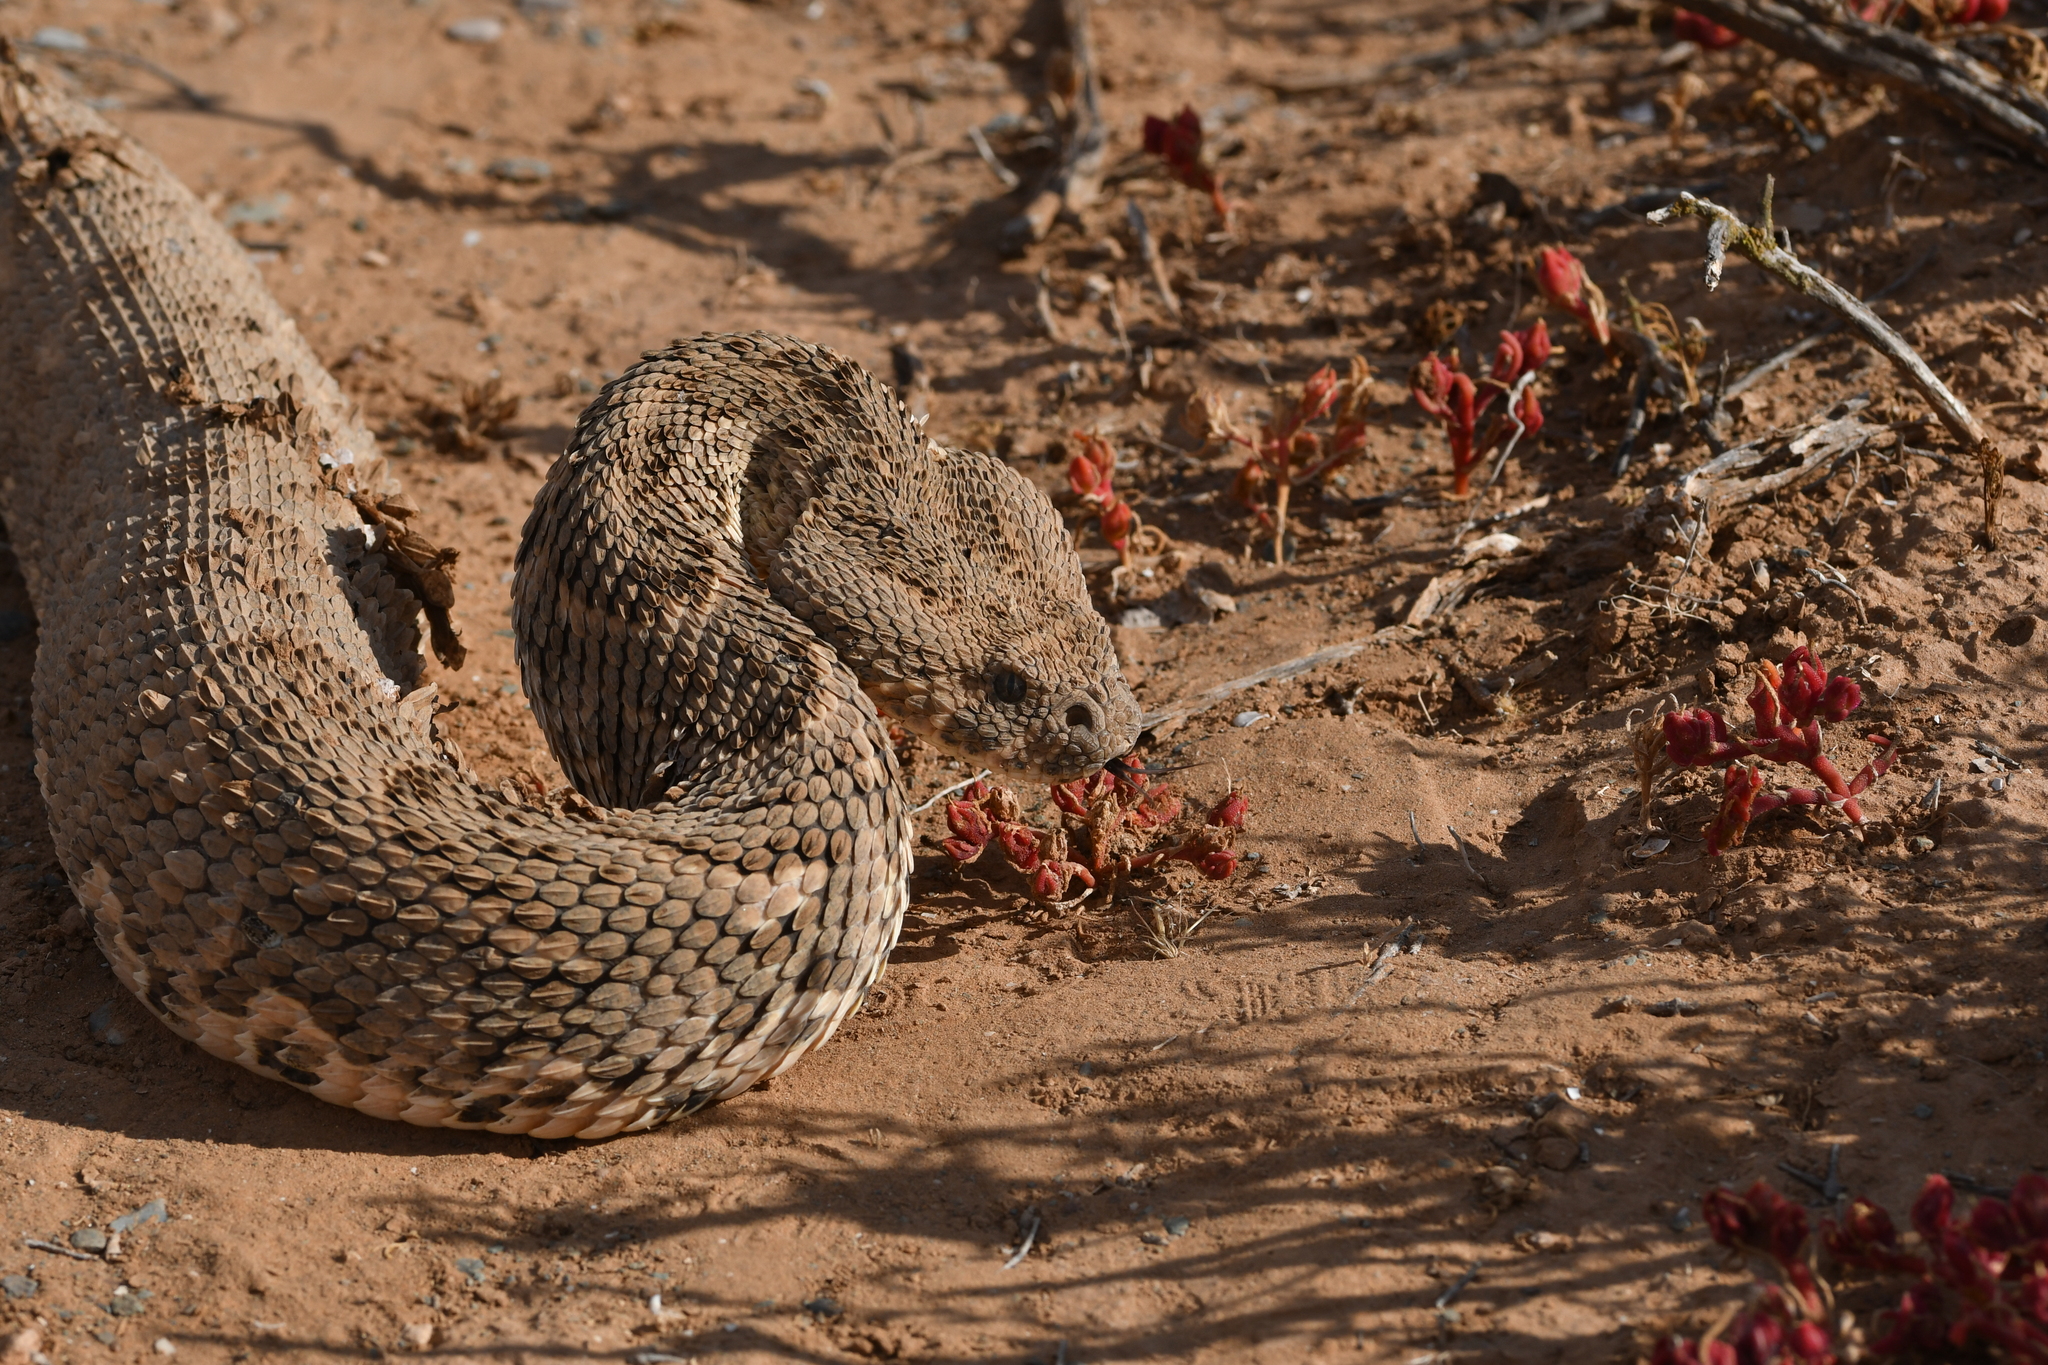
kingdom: Animalia
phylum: Chordata
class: Squamata
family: Viperidae
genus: Bitis
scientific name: Bitis arietans
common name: Puff adder
